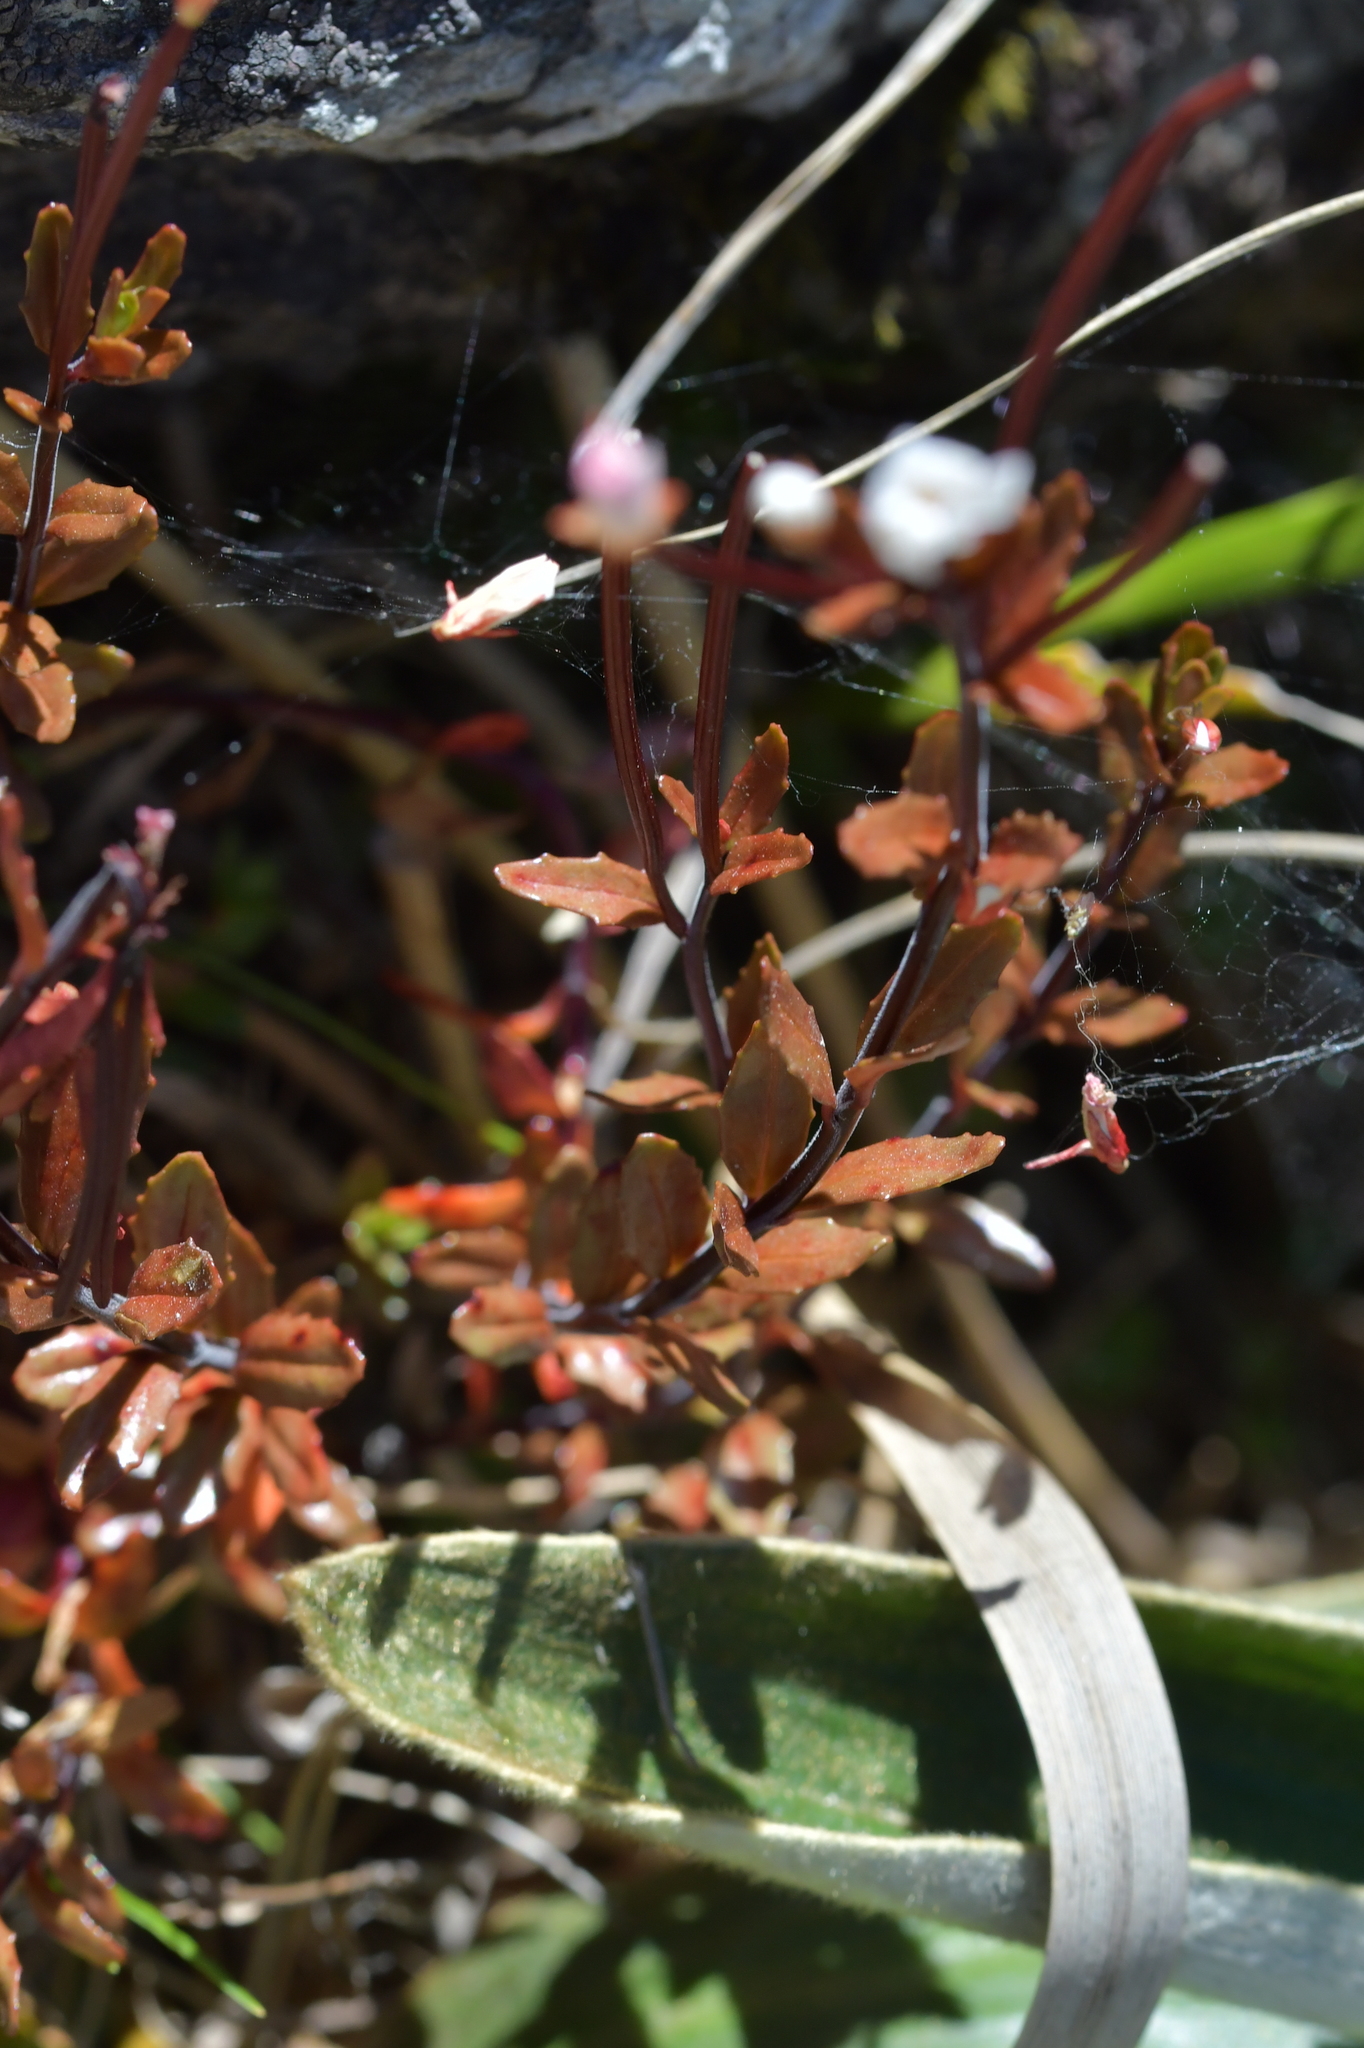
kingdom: Plantae
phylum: Tracheophyta
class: Magnoliopsida
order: Myrtales
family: Onagraceae
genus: Epilobium
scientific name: Epilobium glabellum
